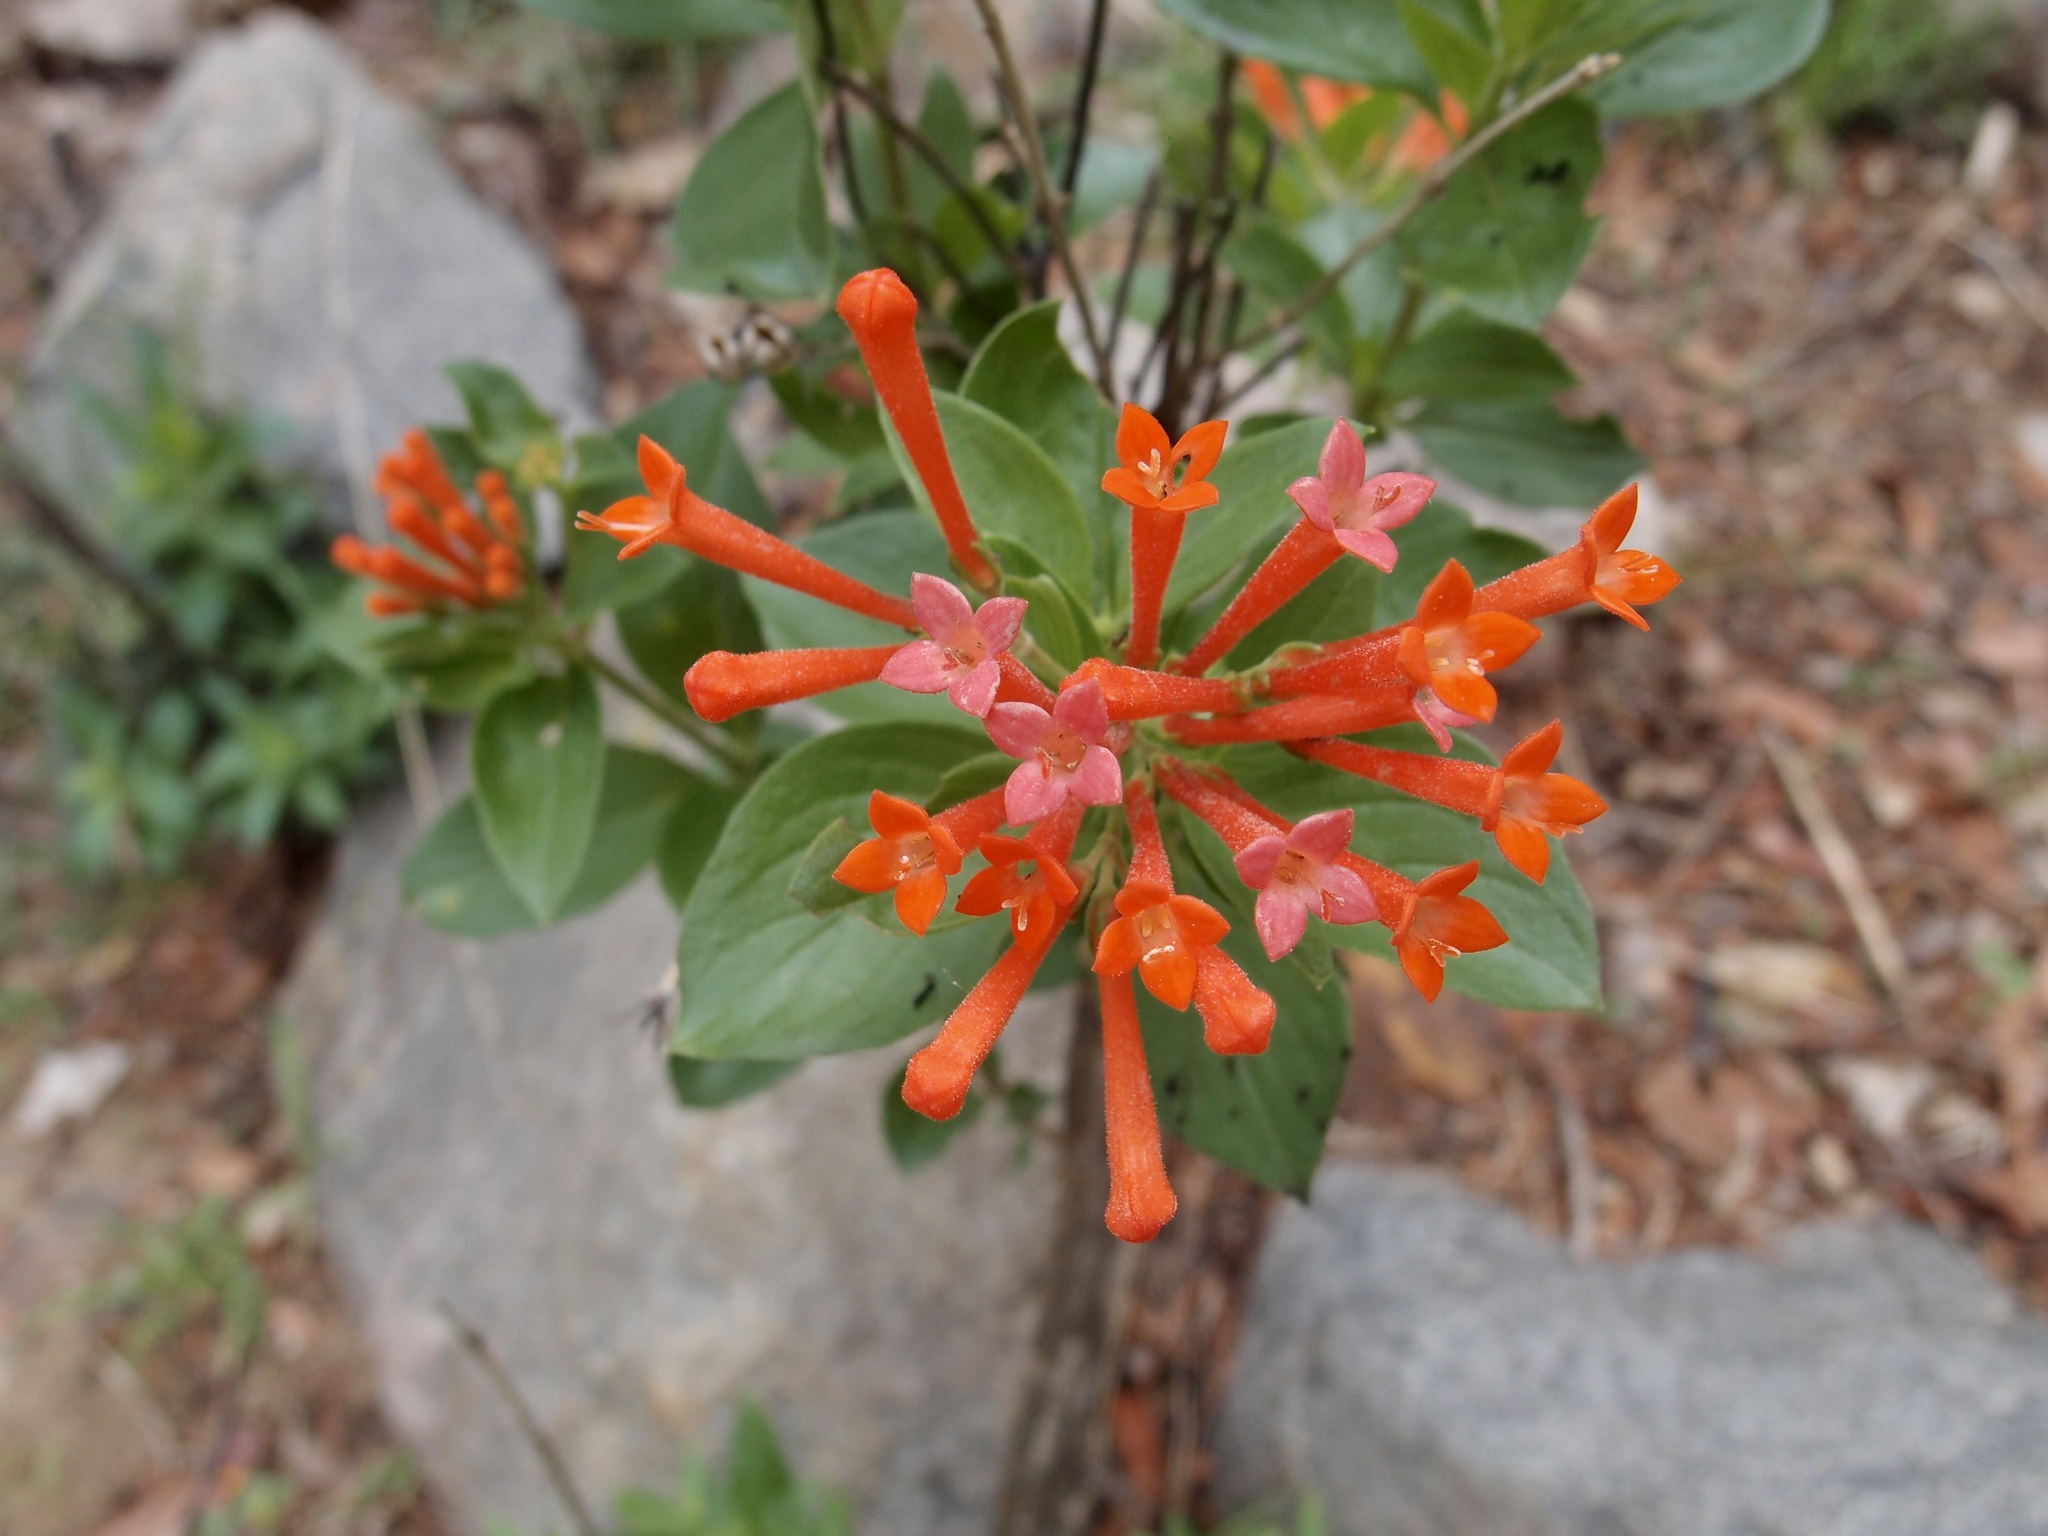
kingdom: Plantae
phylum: Tracheophyta
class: Magnoliopsida
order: Gentianales
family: Rubiaceae
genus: Bouvardia
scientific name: Bouvardia ternifolia
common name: Scarlet bouvardia
